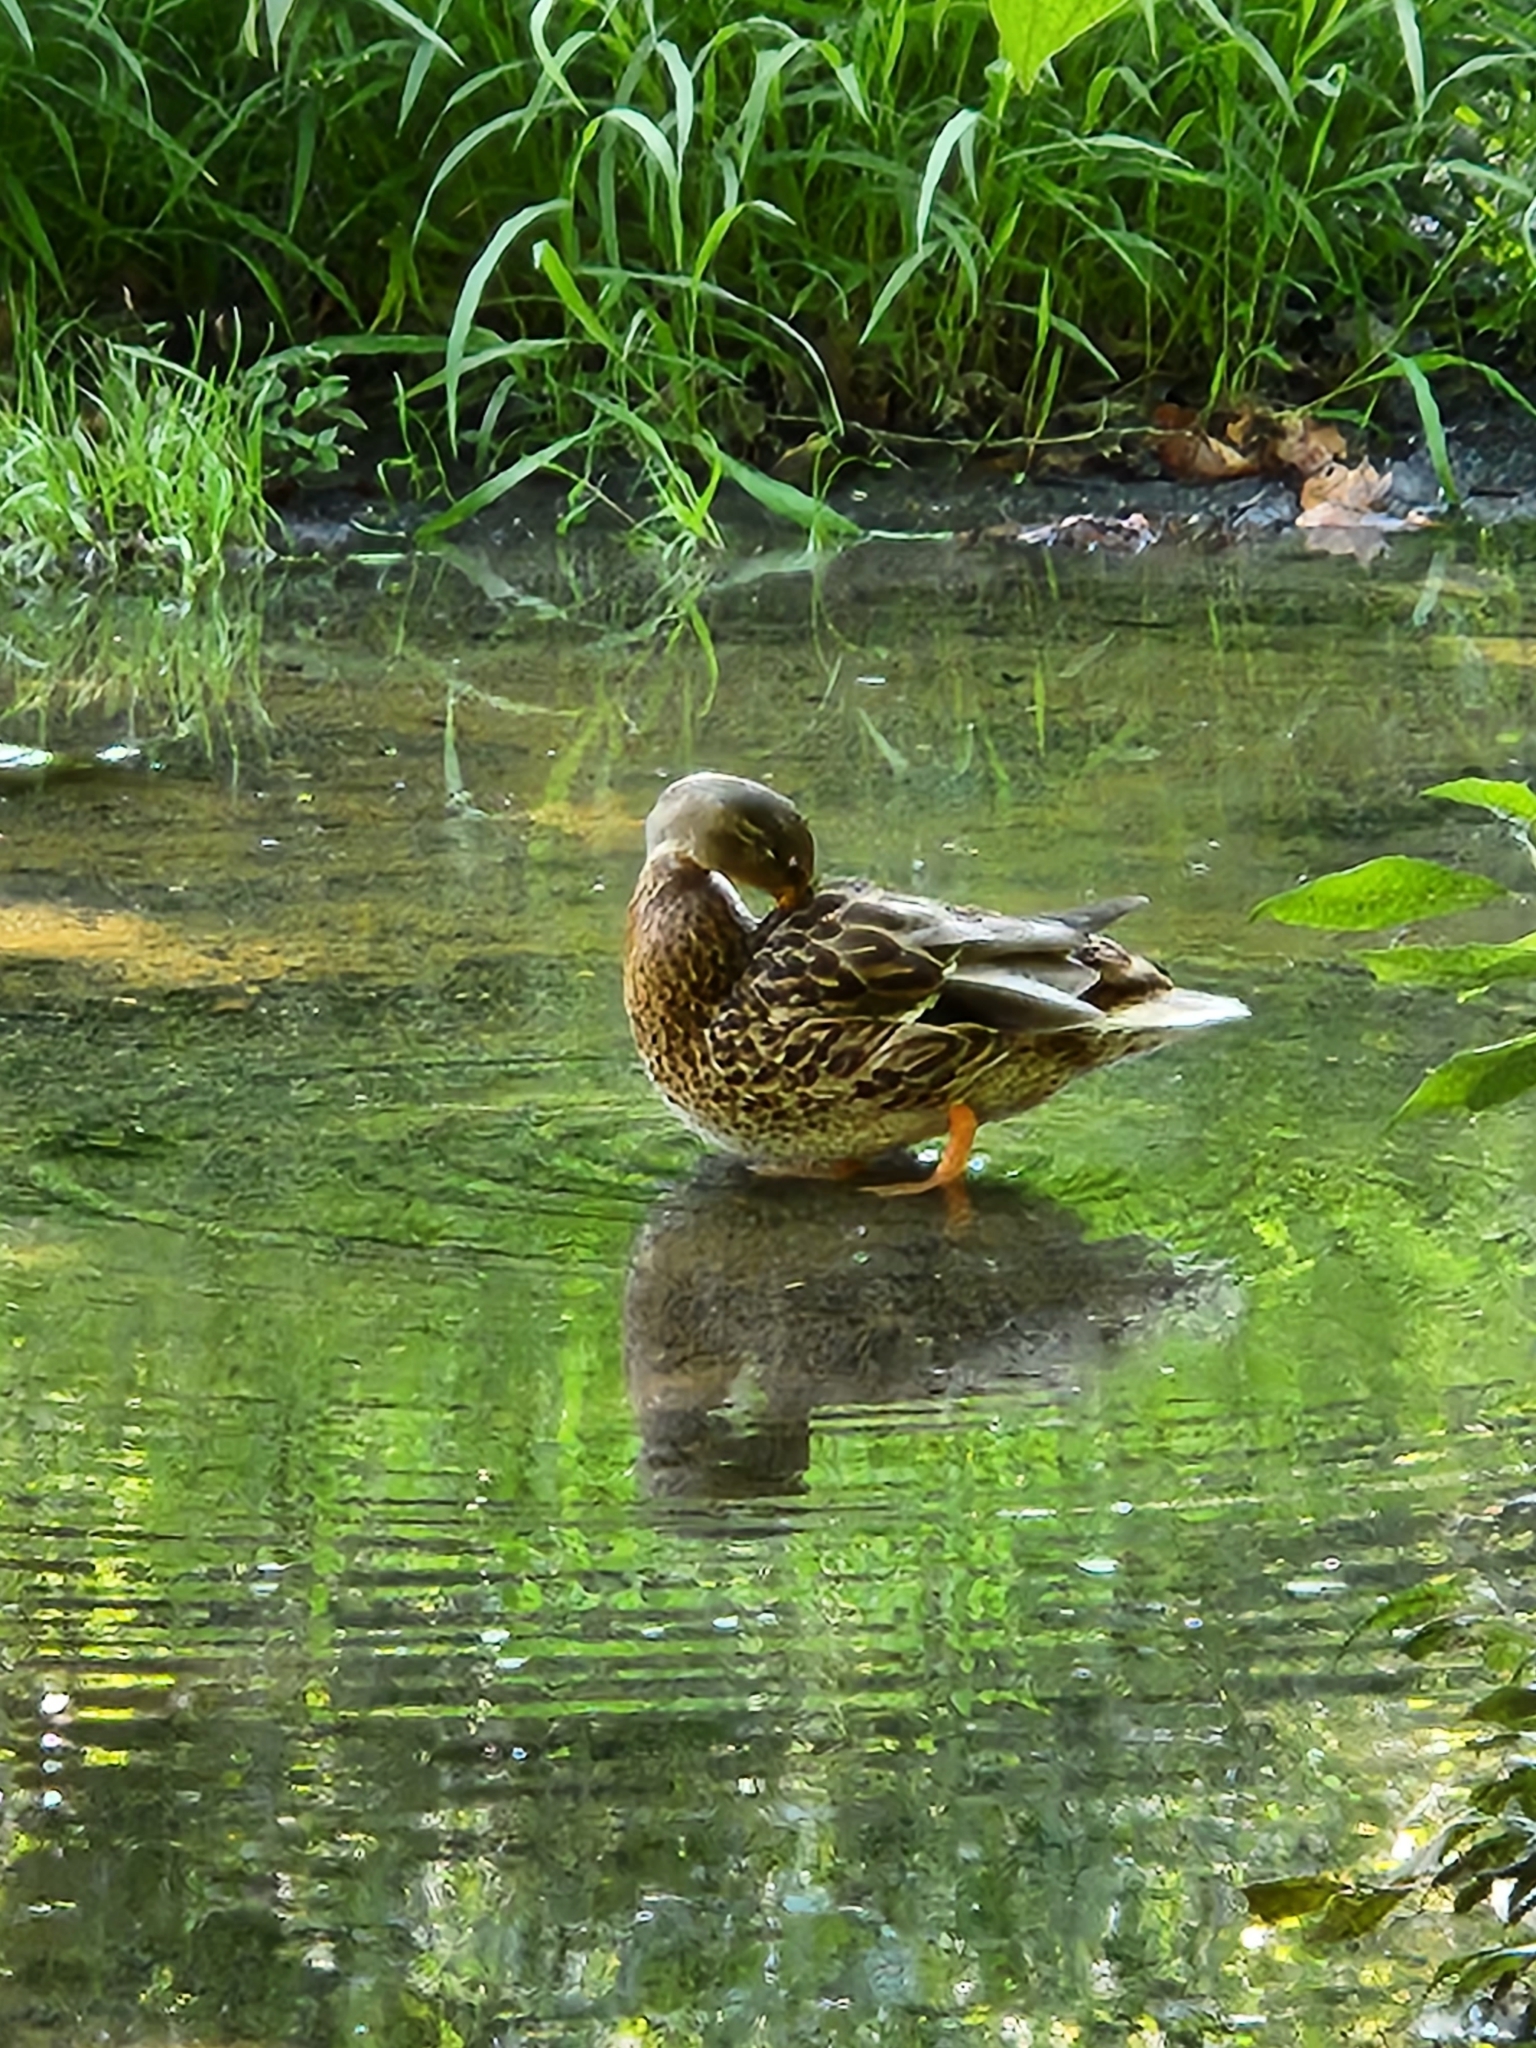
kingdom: Animalia
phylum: Chordata
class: Aves
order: Anseriformes
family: Anatidae
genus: Anas
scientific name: Anas platyrhynchos
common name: Mallard
